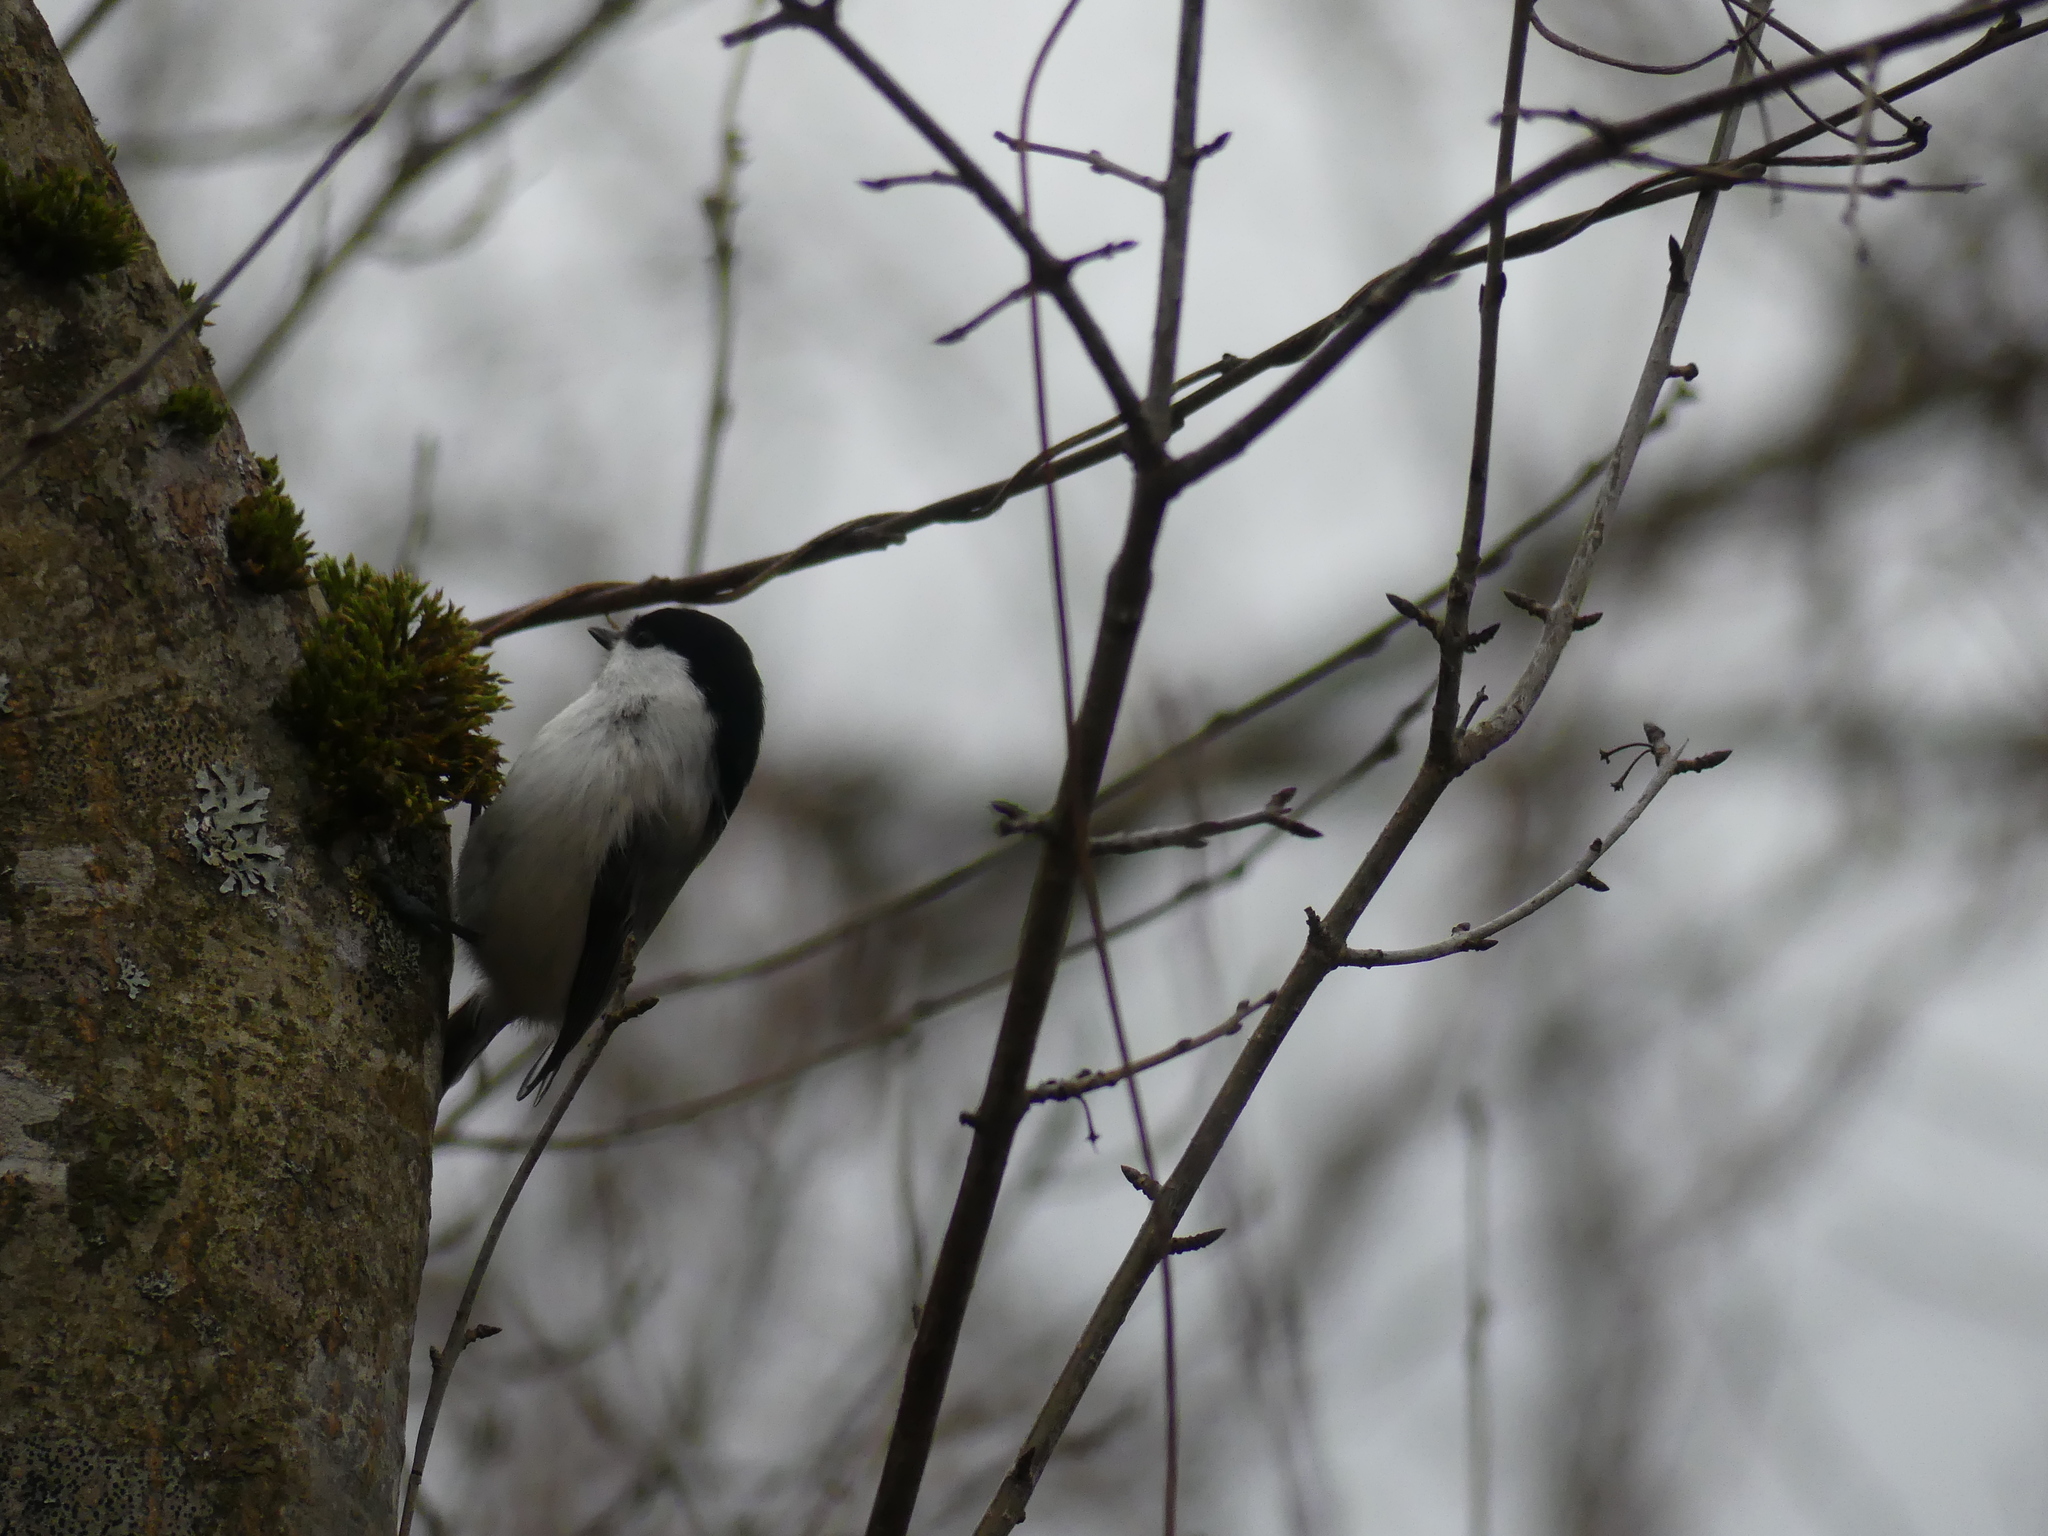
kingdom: Animalia
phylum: Chordata
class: Aves
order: Passeriformes
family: Paridae
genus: Poecile
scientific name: Poecile montanus
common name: Willow tit
